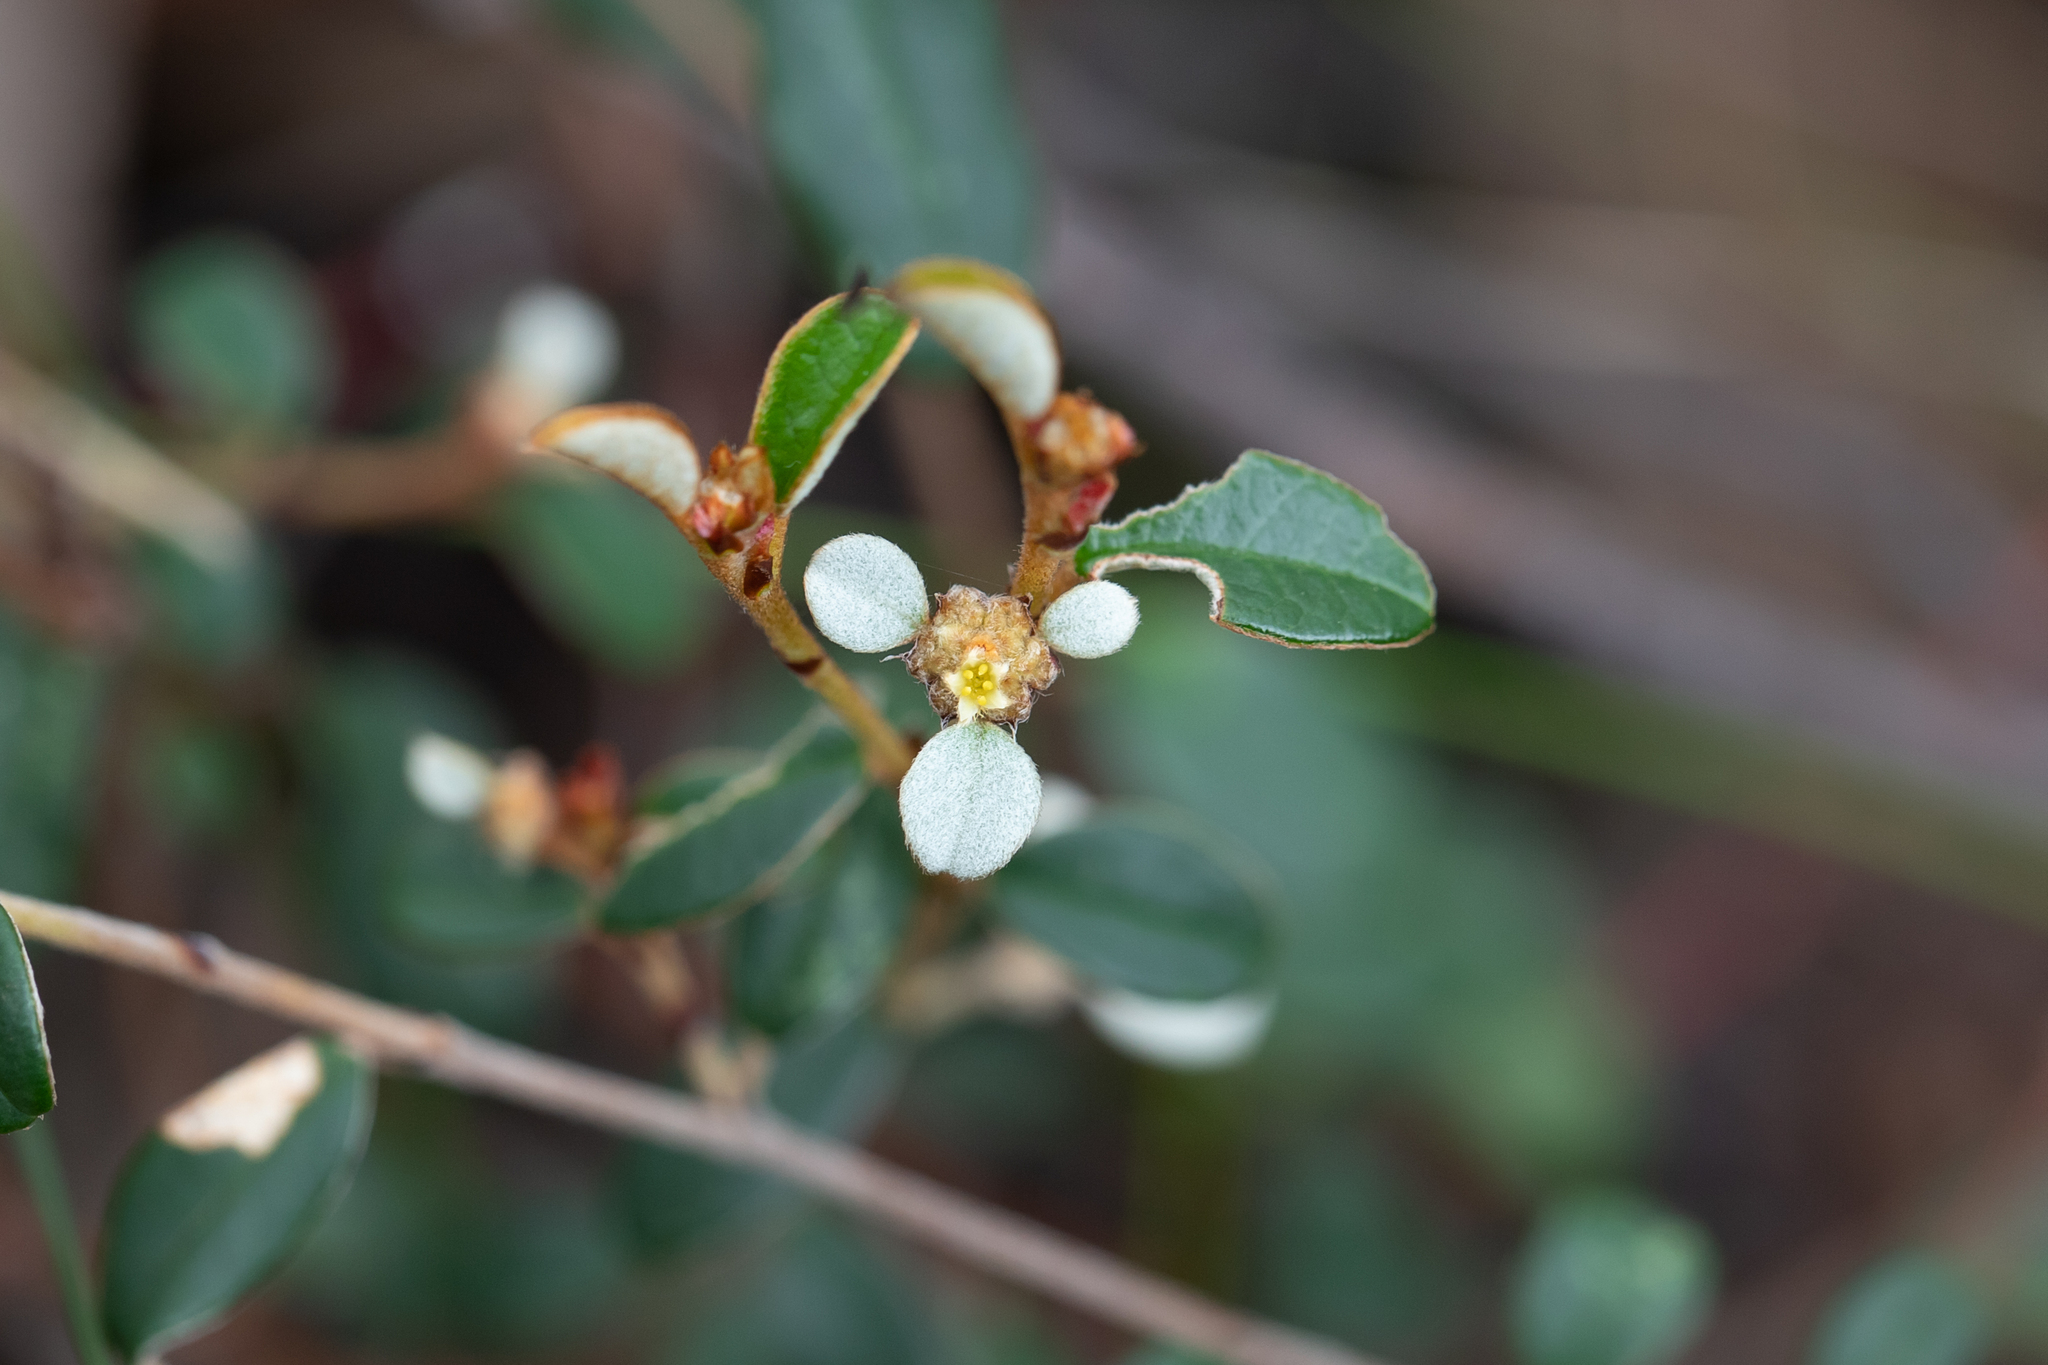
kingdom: Plantae
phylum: Tracheophyta
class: Magnoliopsida
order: Rosales
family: Rhamnaceae
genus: Spyridium
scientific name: Spyridium thymifolium
